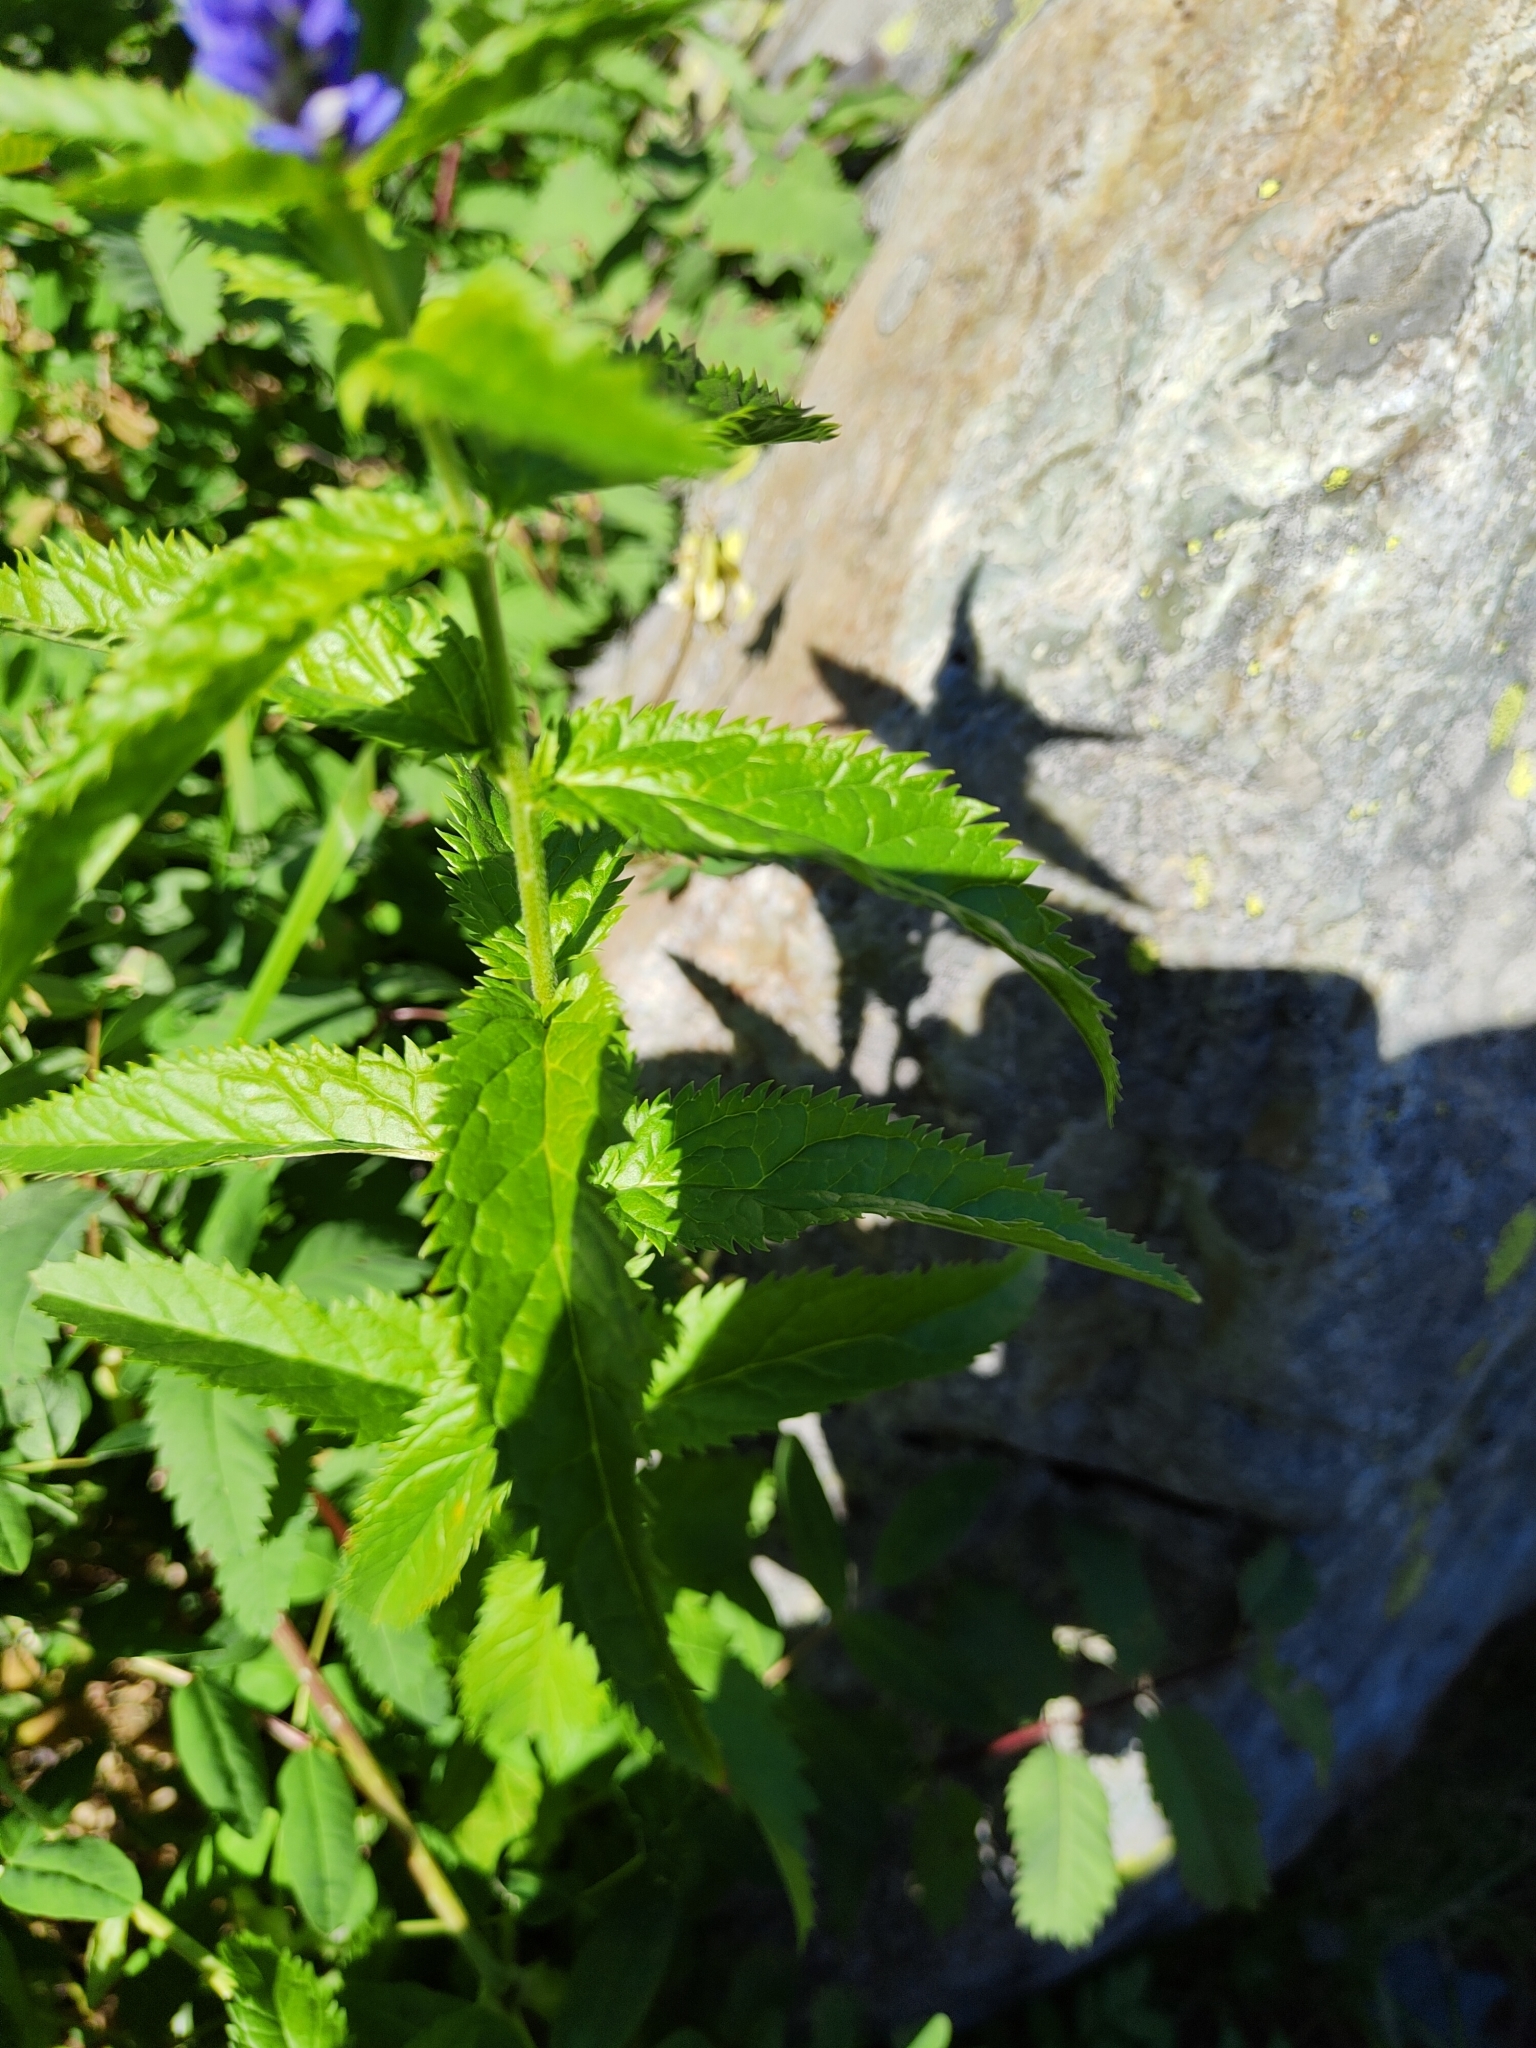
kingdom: Plantae
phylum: Tracheophyta
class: Magnoliopsida
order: Lamiales
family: Plantaginaceae
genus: Veronica
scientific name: Veronica longifolia
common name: Garden speedwell
